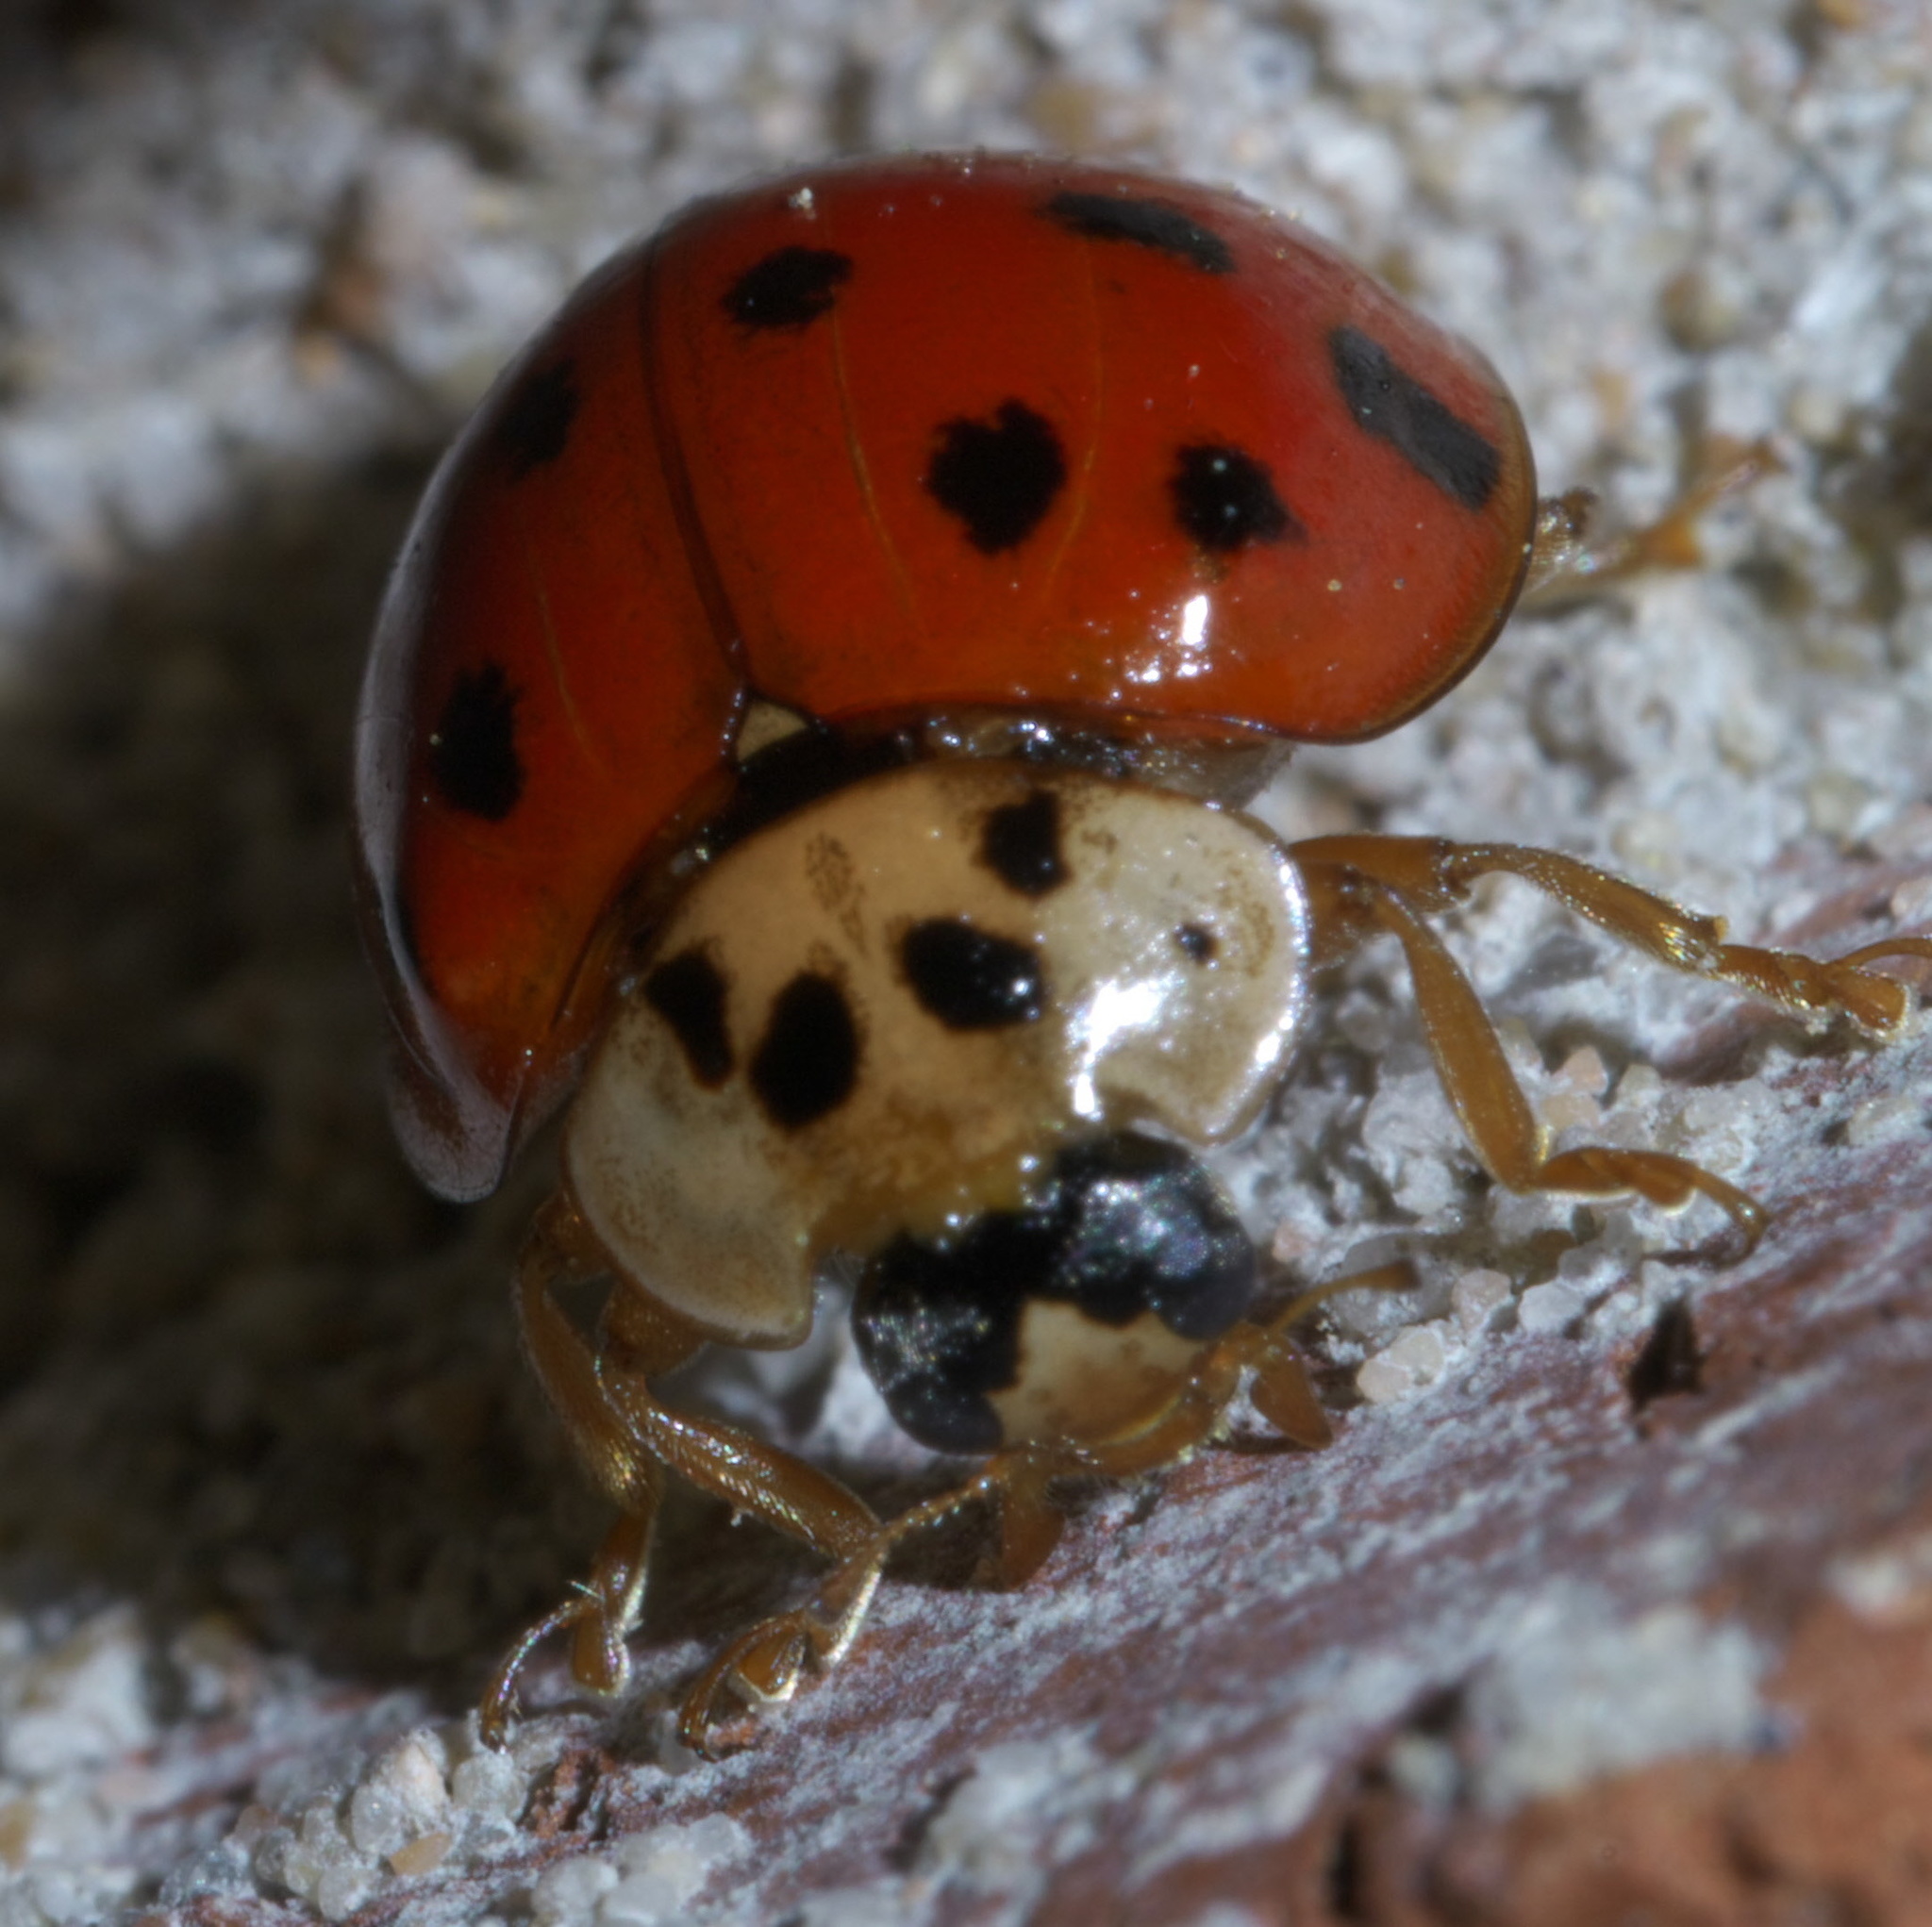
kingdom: Animalia
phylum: Arthropoda
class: Insecta
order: Coleoptera
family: Coccinellidae
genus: Harmonia
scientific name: Harmonia axyridis
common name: Harlequin ladybird
